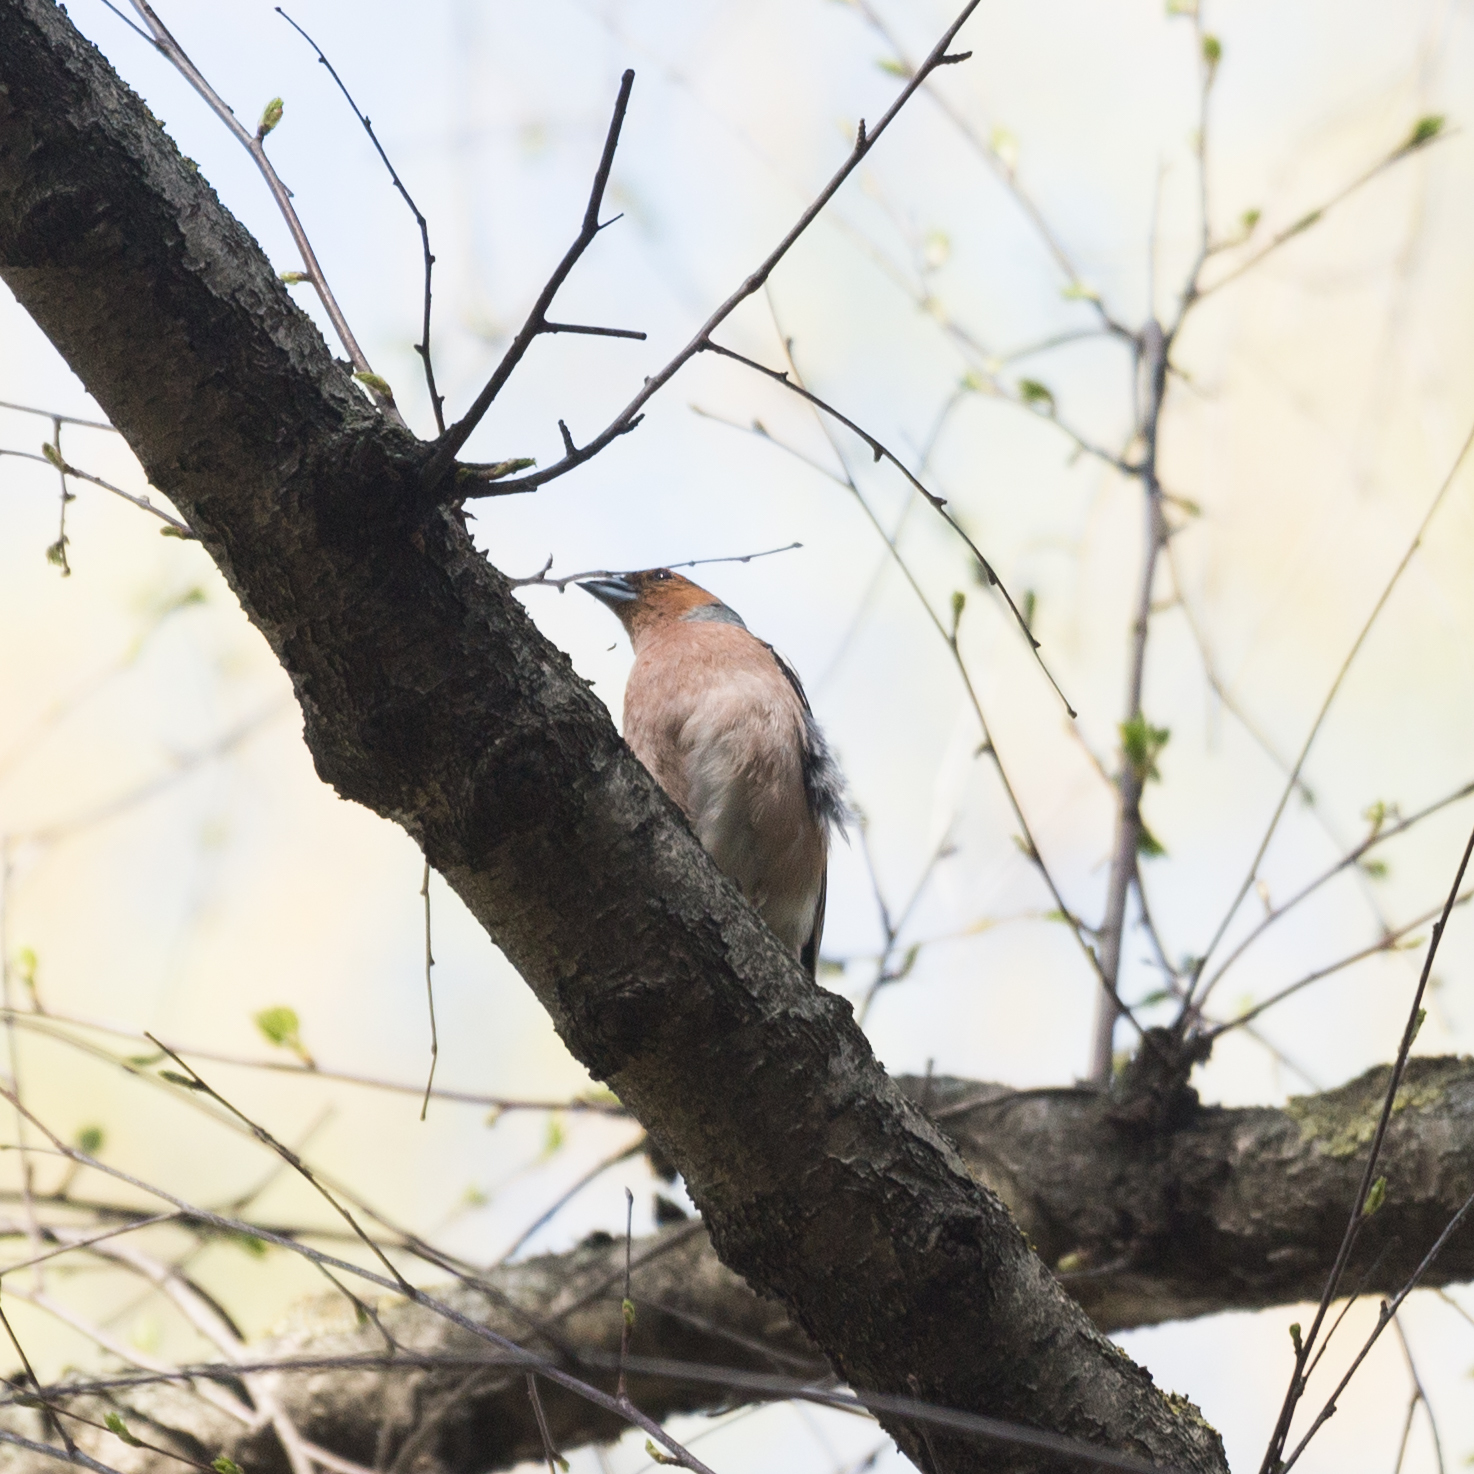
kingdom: Animalia
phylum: Chordata
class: Aves
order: Passeriformes
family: Fringillidae
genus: Fringilla
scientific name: Fringilla coelebs
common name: Common chaffinch
